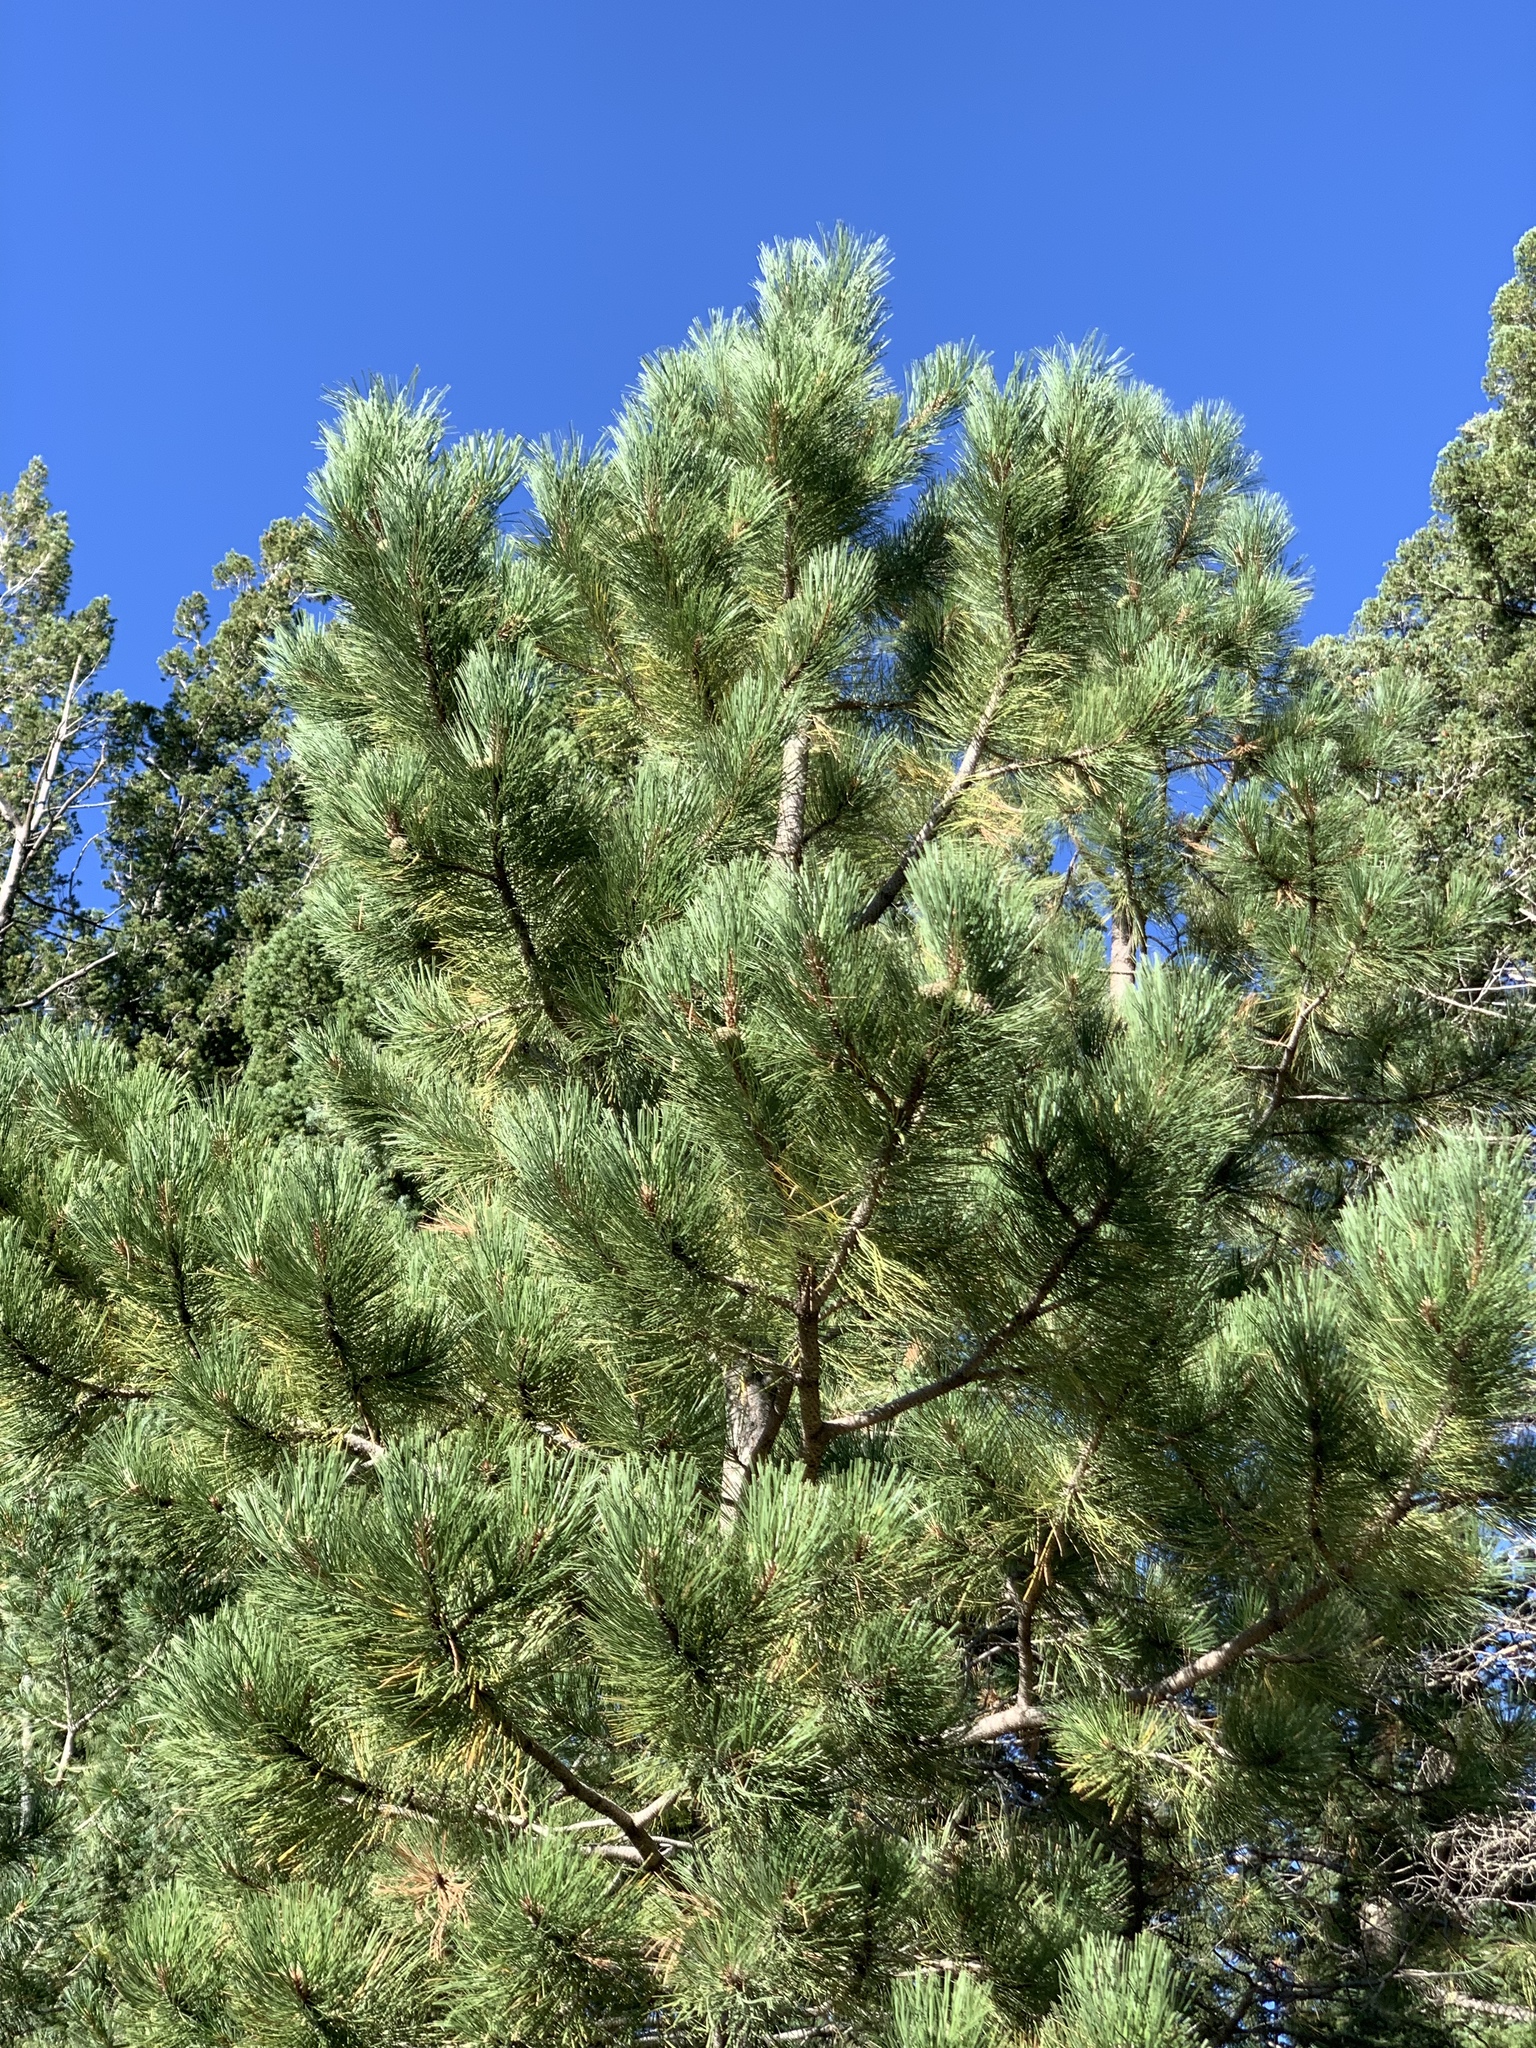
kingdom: Plantae
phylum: Tracheophyta
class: Pinopsida
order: Pinales
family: Pinaceae
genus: Pinus
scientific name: Pinus ponderosa
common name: Western yellow-pine
